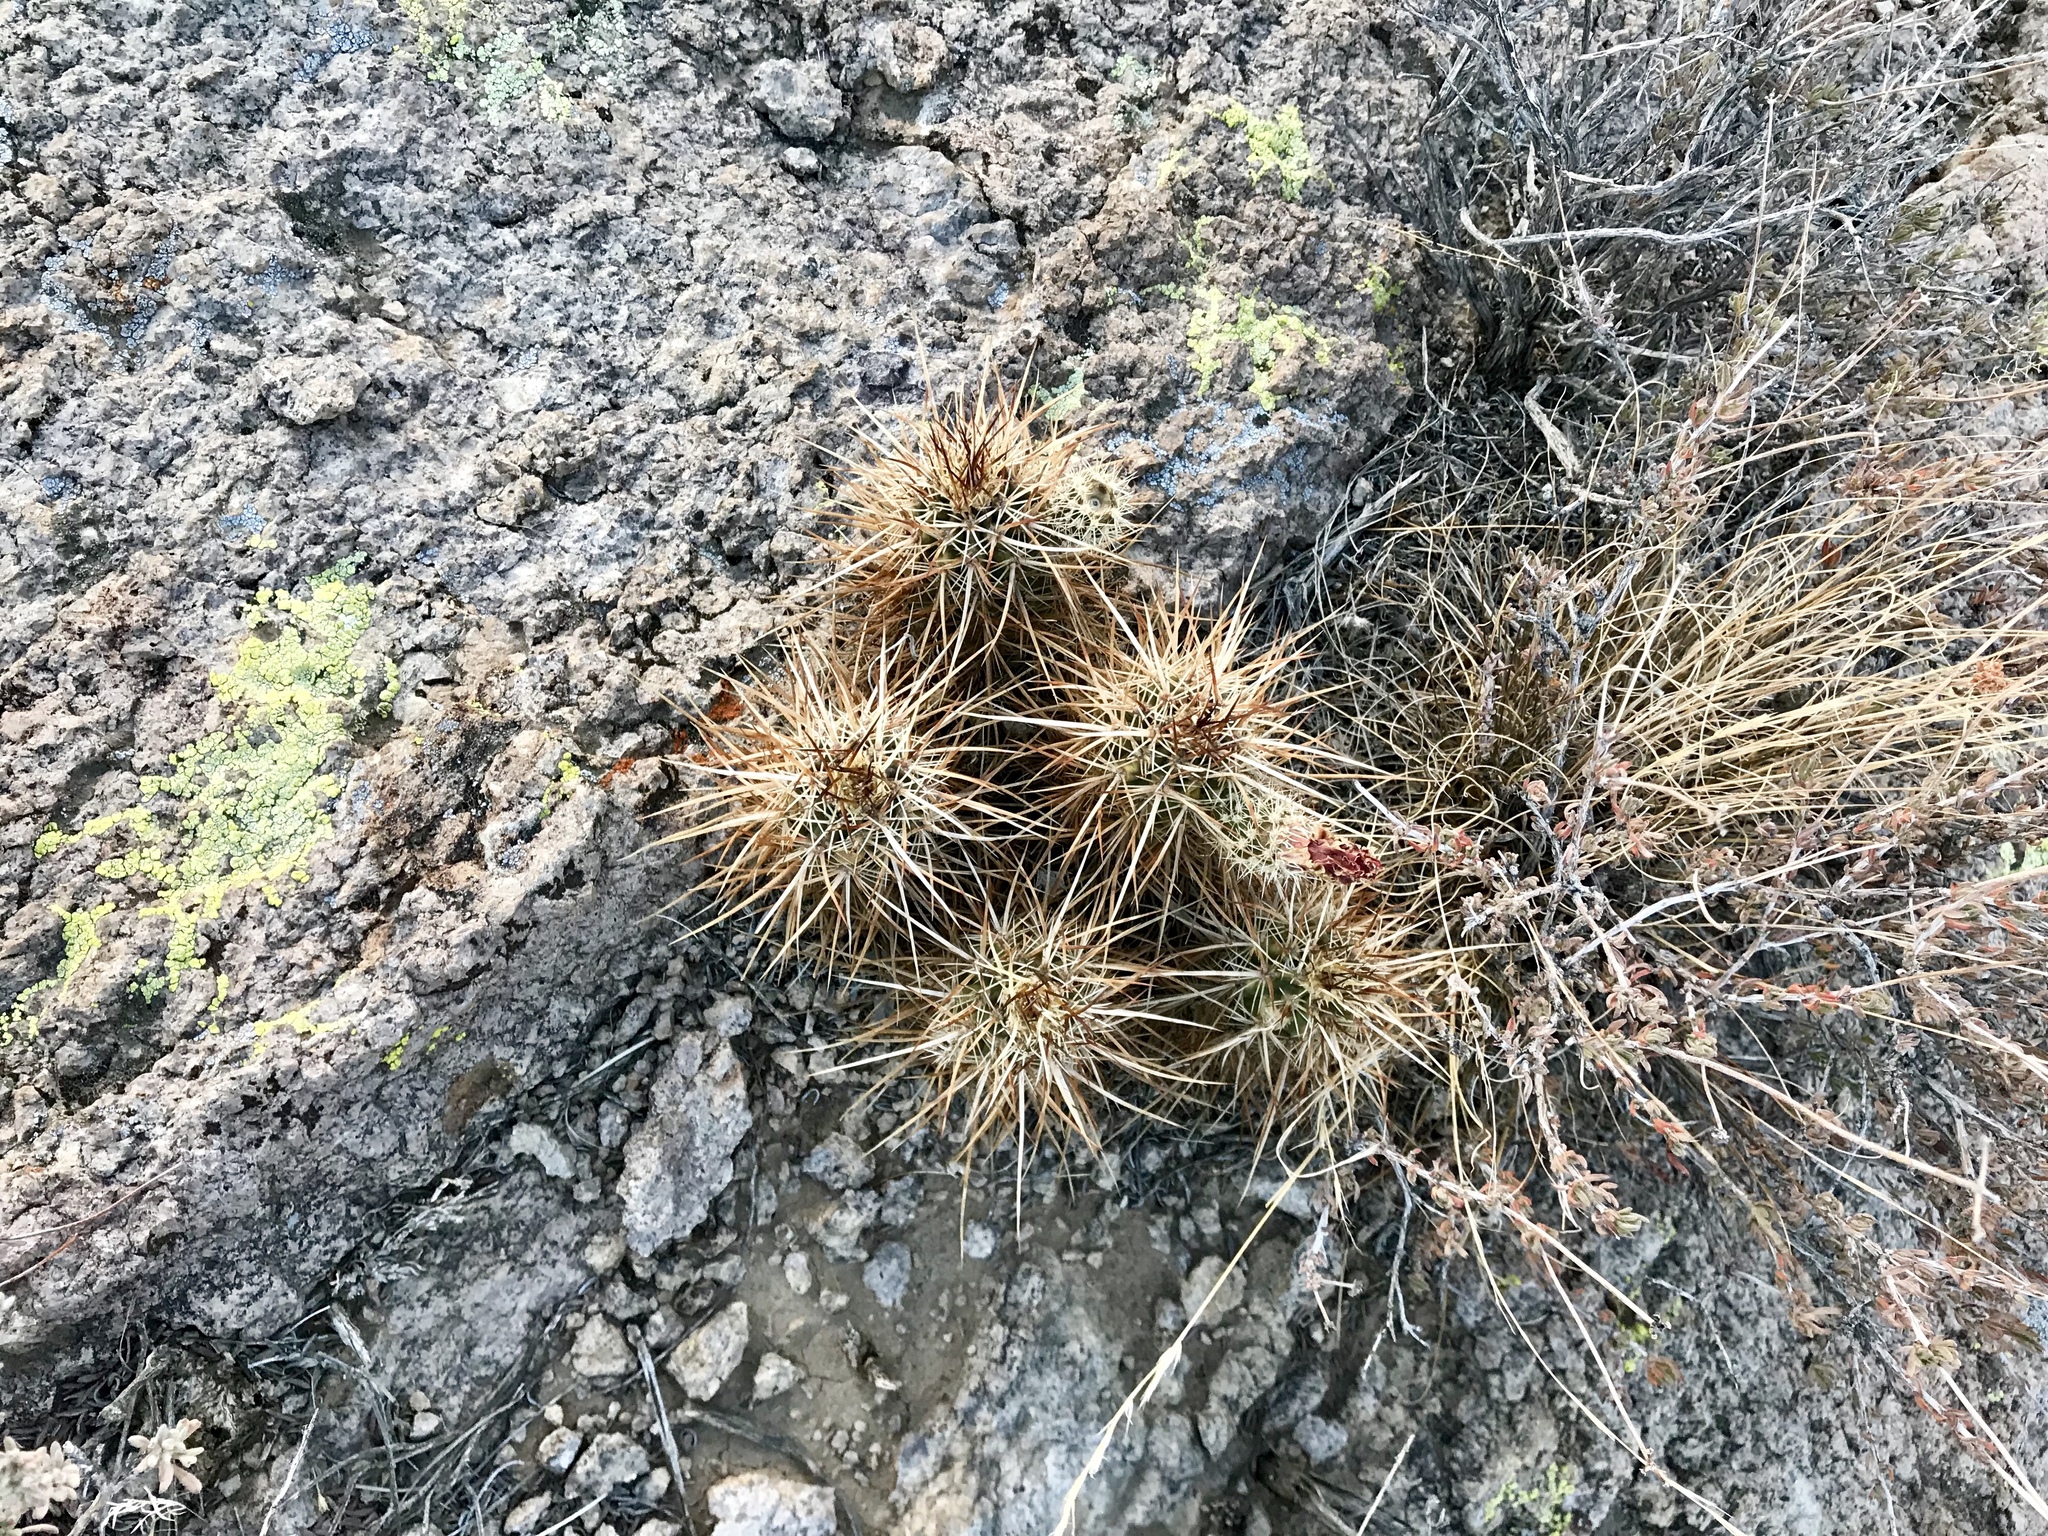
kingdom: Plantae
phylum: Tracheophyta
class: Magnoliopsida
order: Caryophyllales
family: Cactaceae
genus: Echinocereus
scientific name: Echinocereus engelmannii
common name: Engelmann's hedgehog cactus
